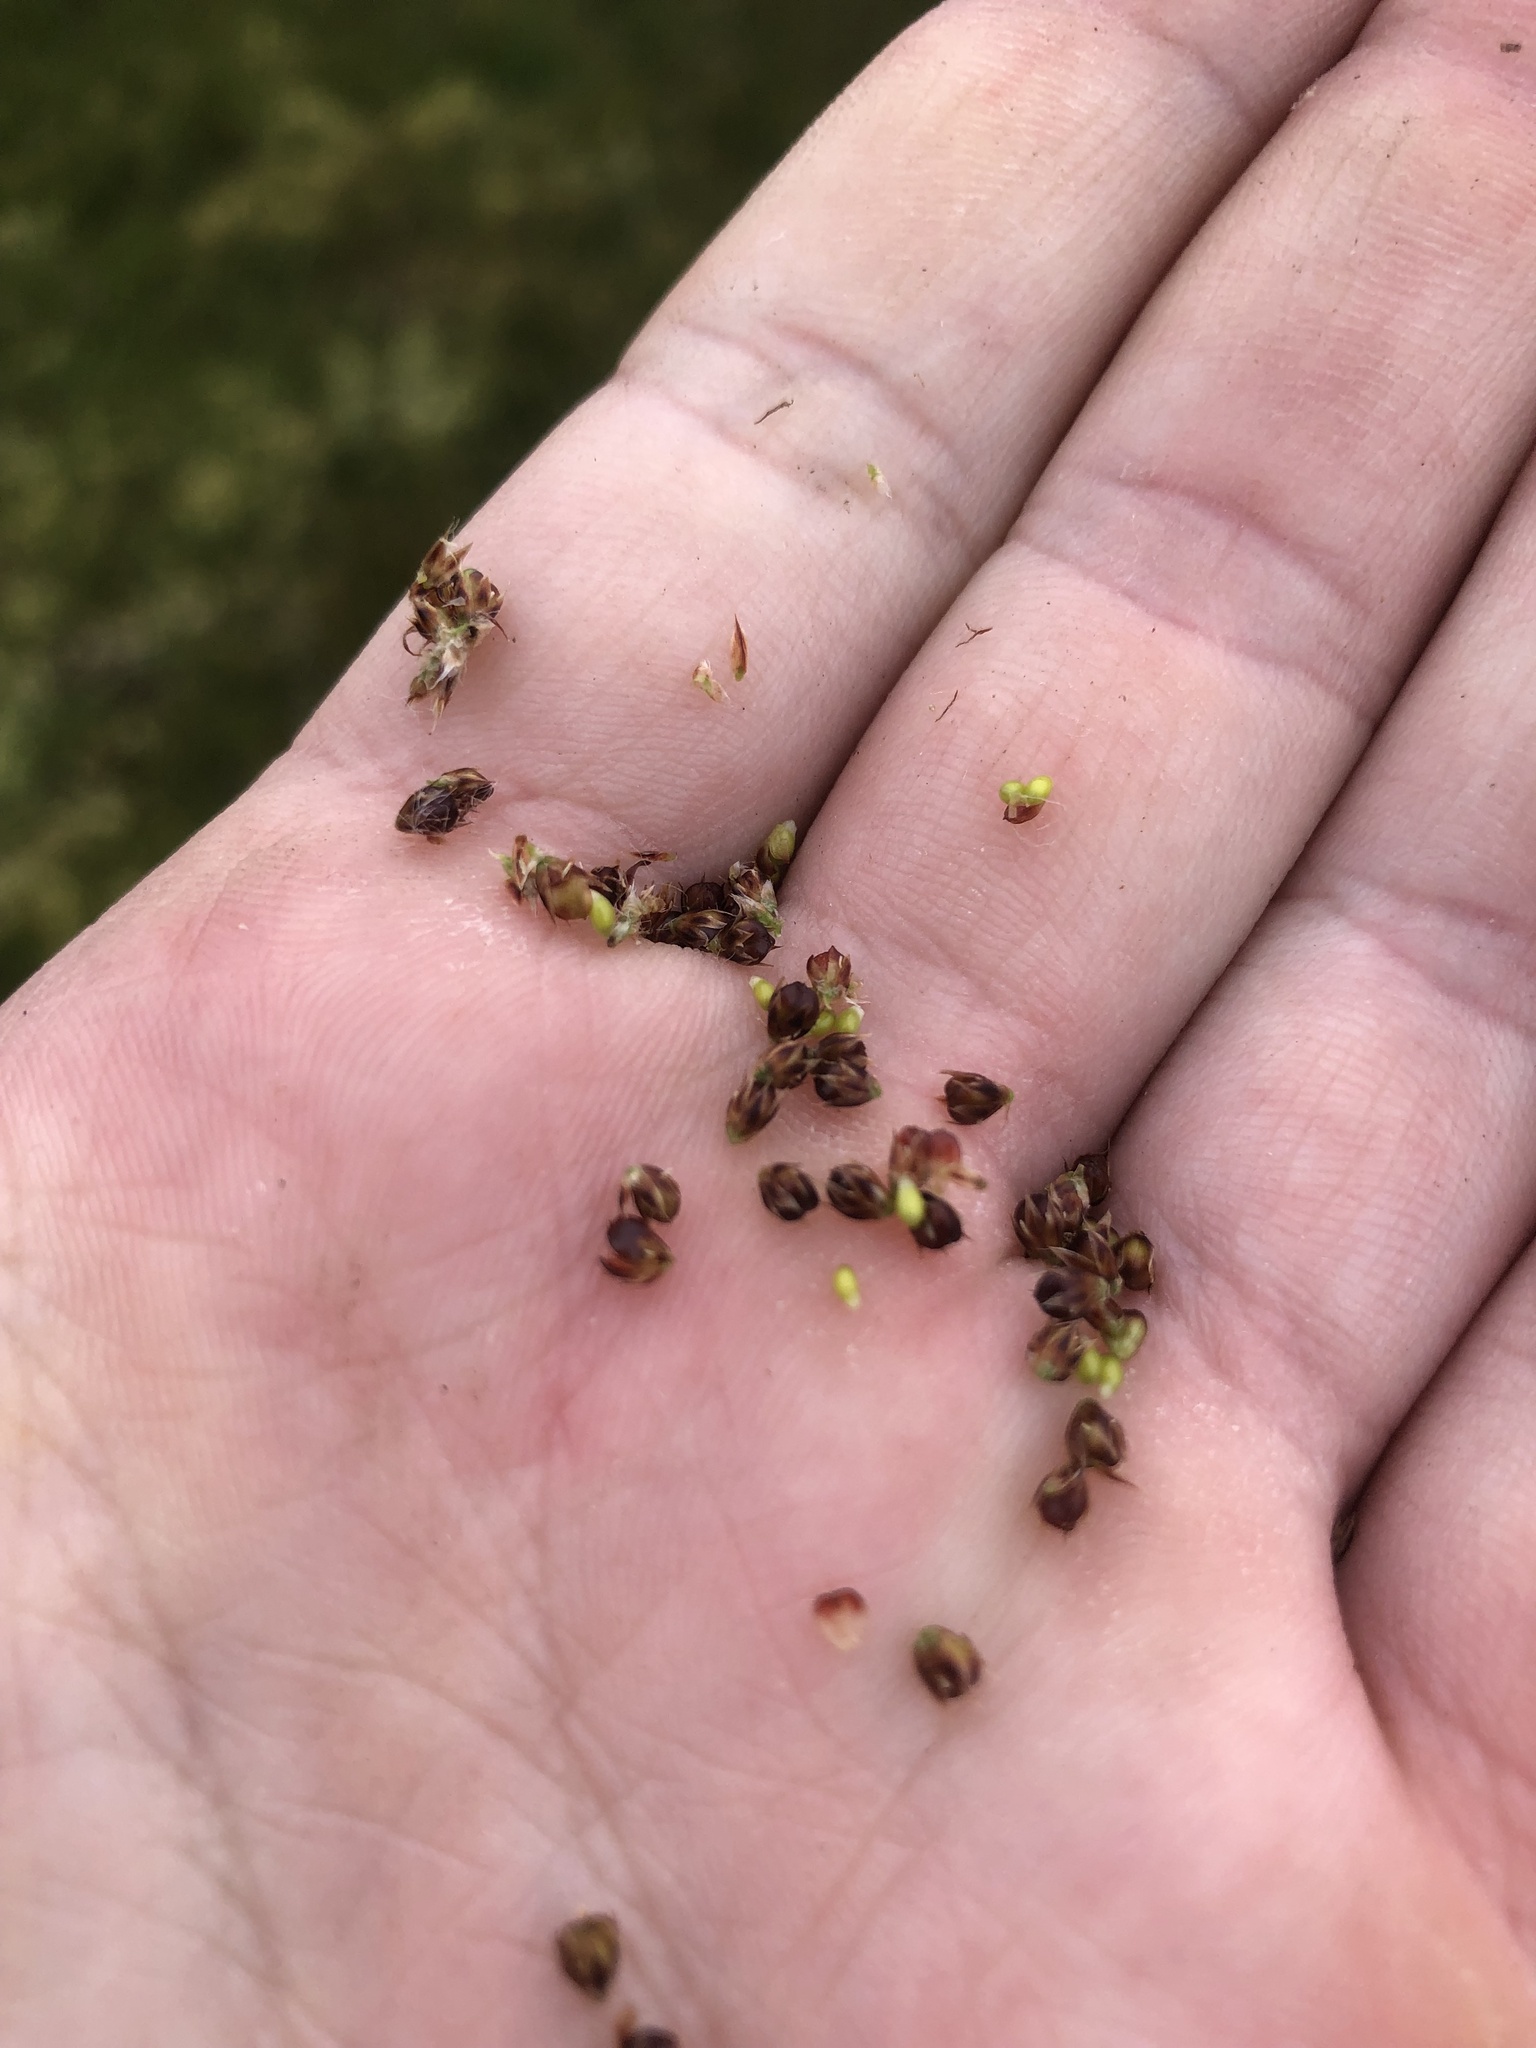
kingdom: Plantae
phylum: Tracheophyta
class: Liliopsida
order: Poales
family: Juncaceae
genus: Luzula
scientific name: Luzula congesta
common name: Heath woodrush
